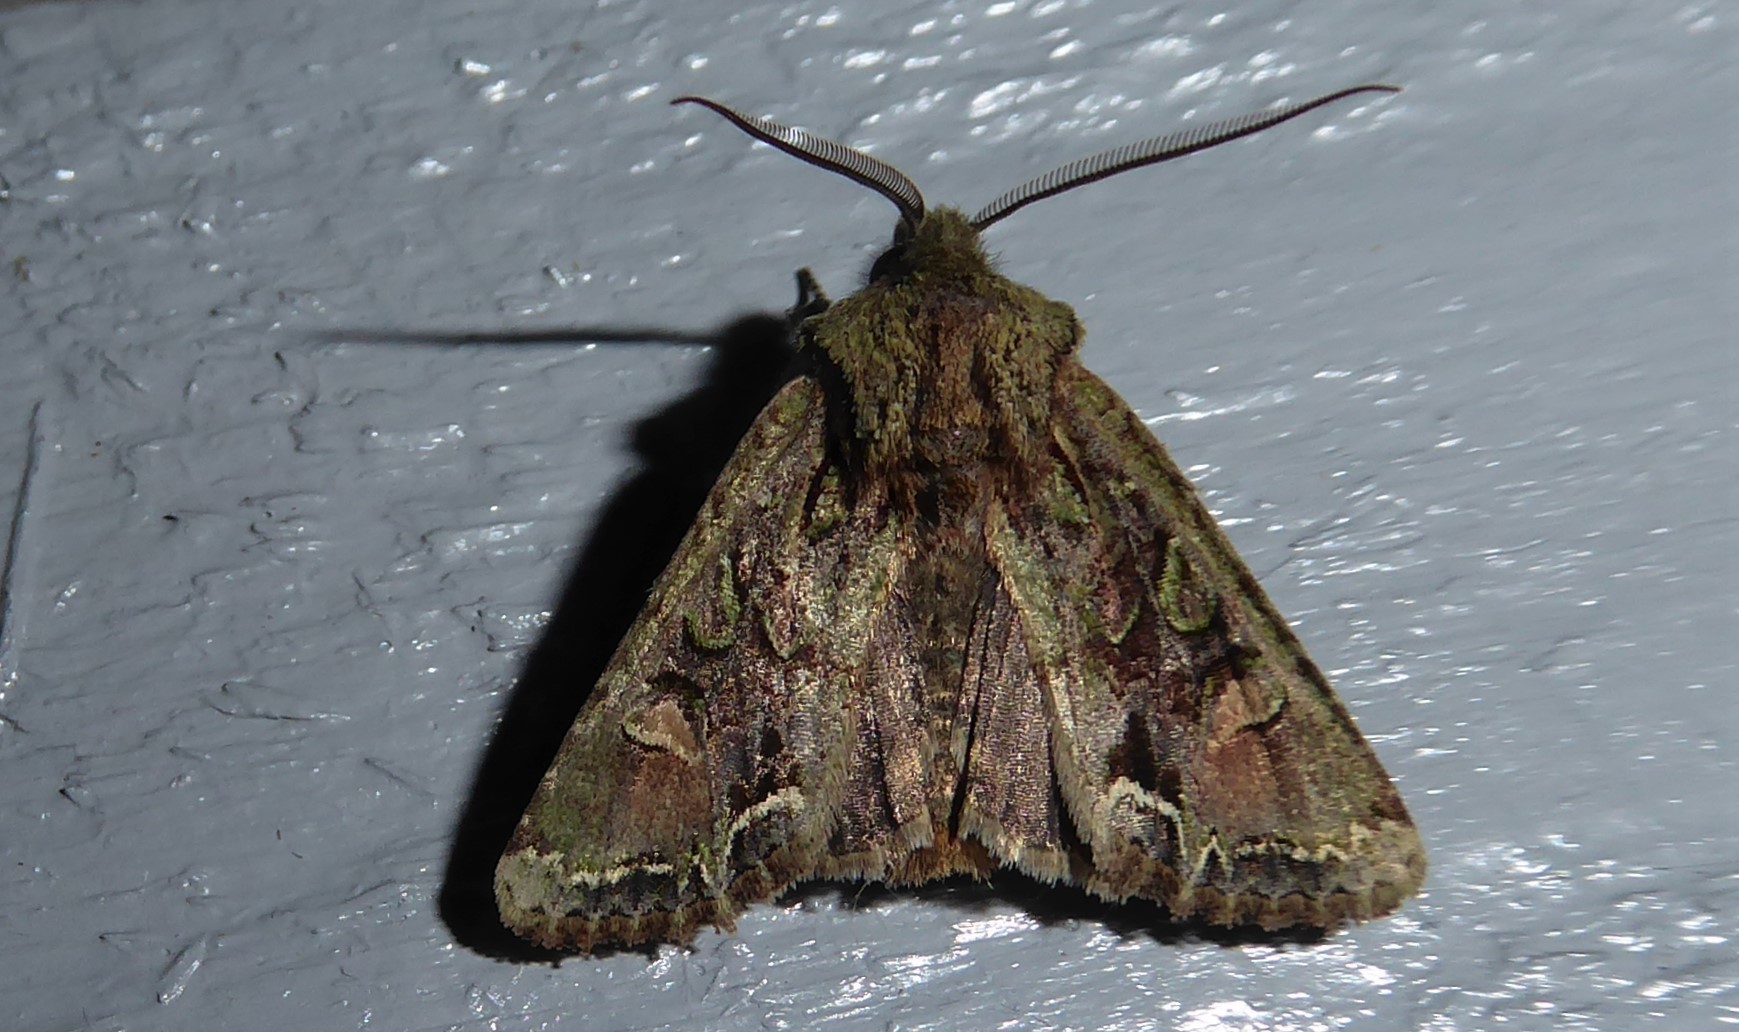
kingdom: Animalia
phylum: Arthropoda
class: Insecta
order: Lepidoptera
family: Noctuidae
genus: Ichneutica
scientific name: Ichneutica insignis
